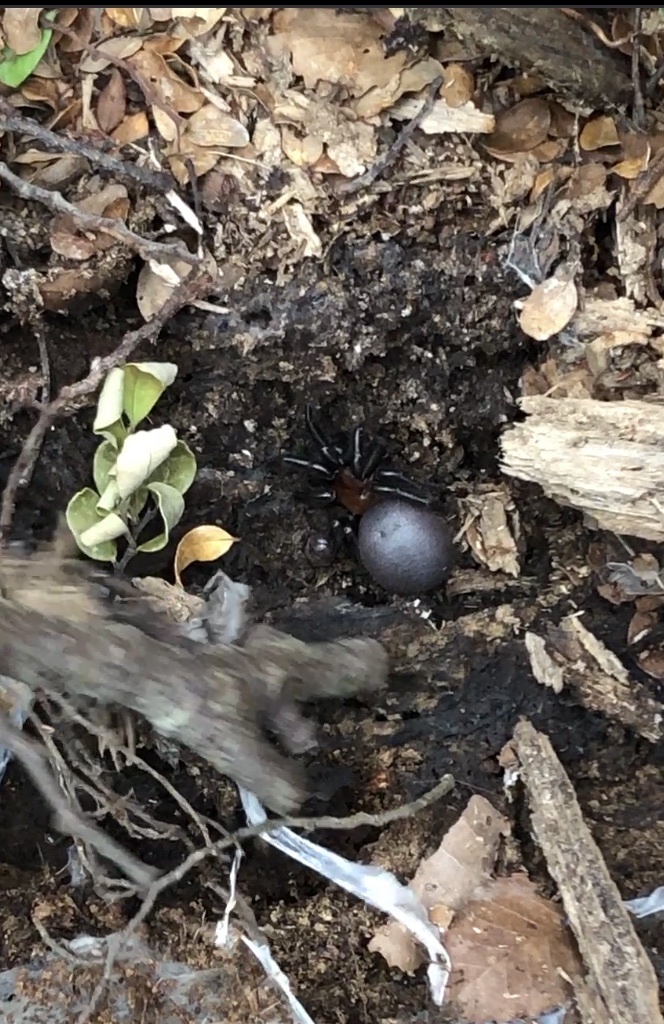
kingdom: Animalia
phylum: Arthropoda
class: Arachnida
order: Araneae
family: Porrhothelidae
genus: Porrhothele
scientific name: Porrhothele antipodiana
